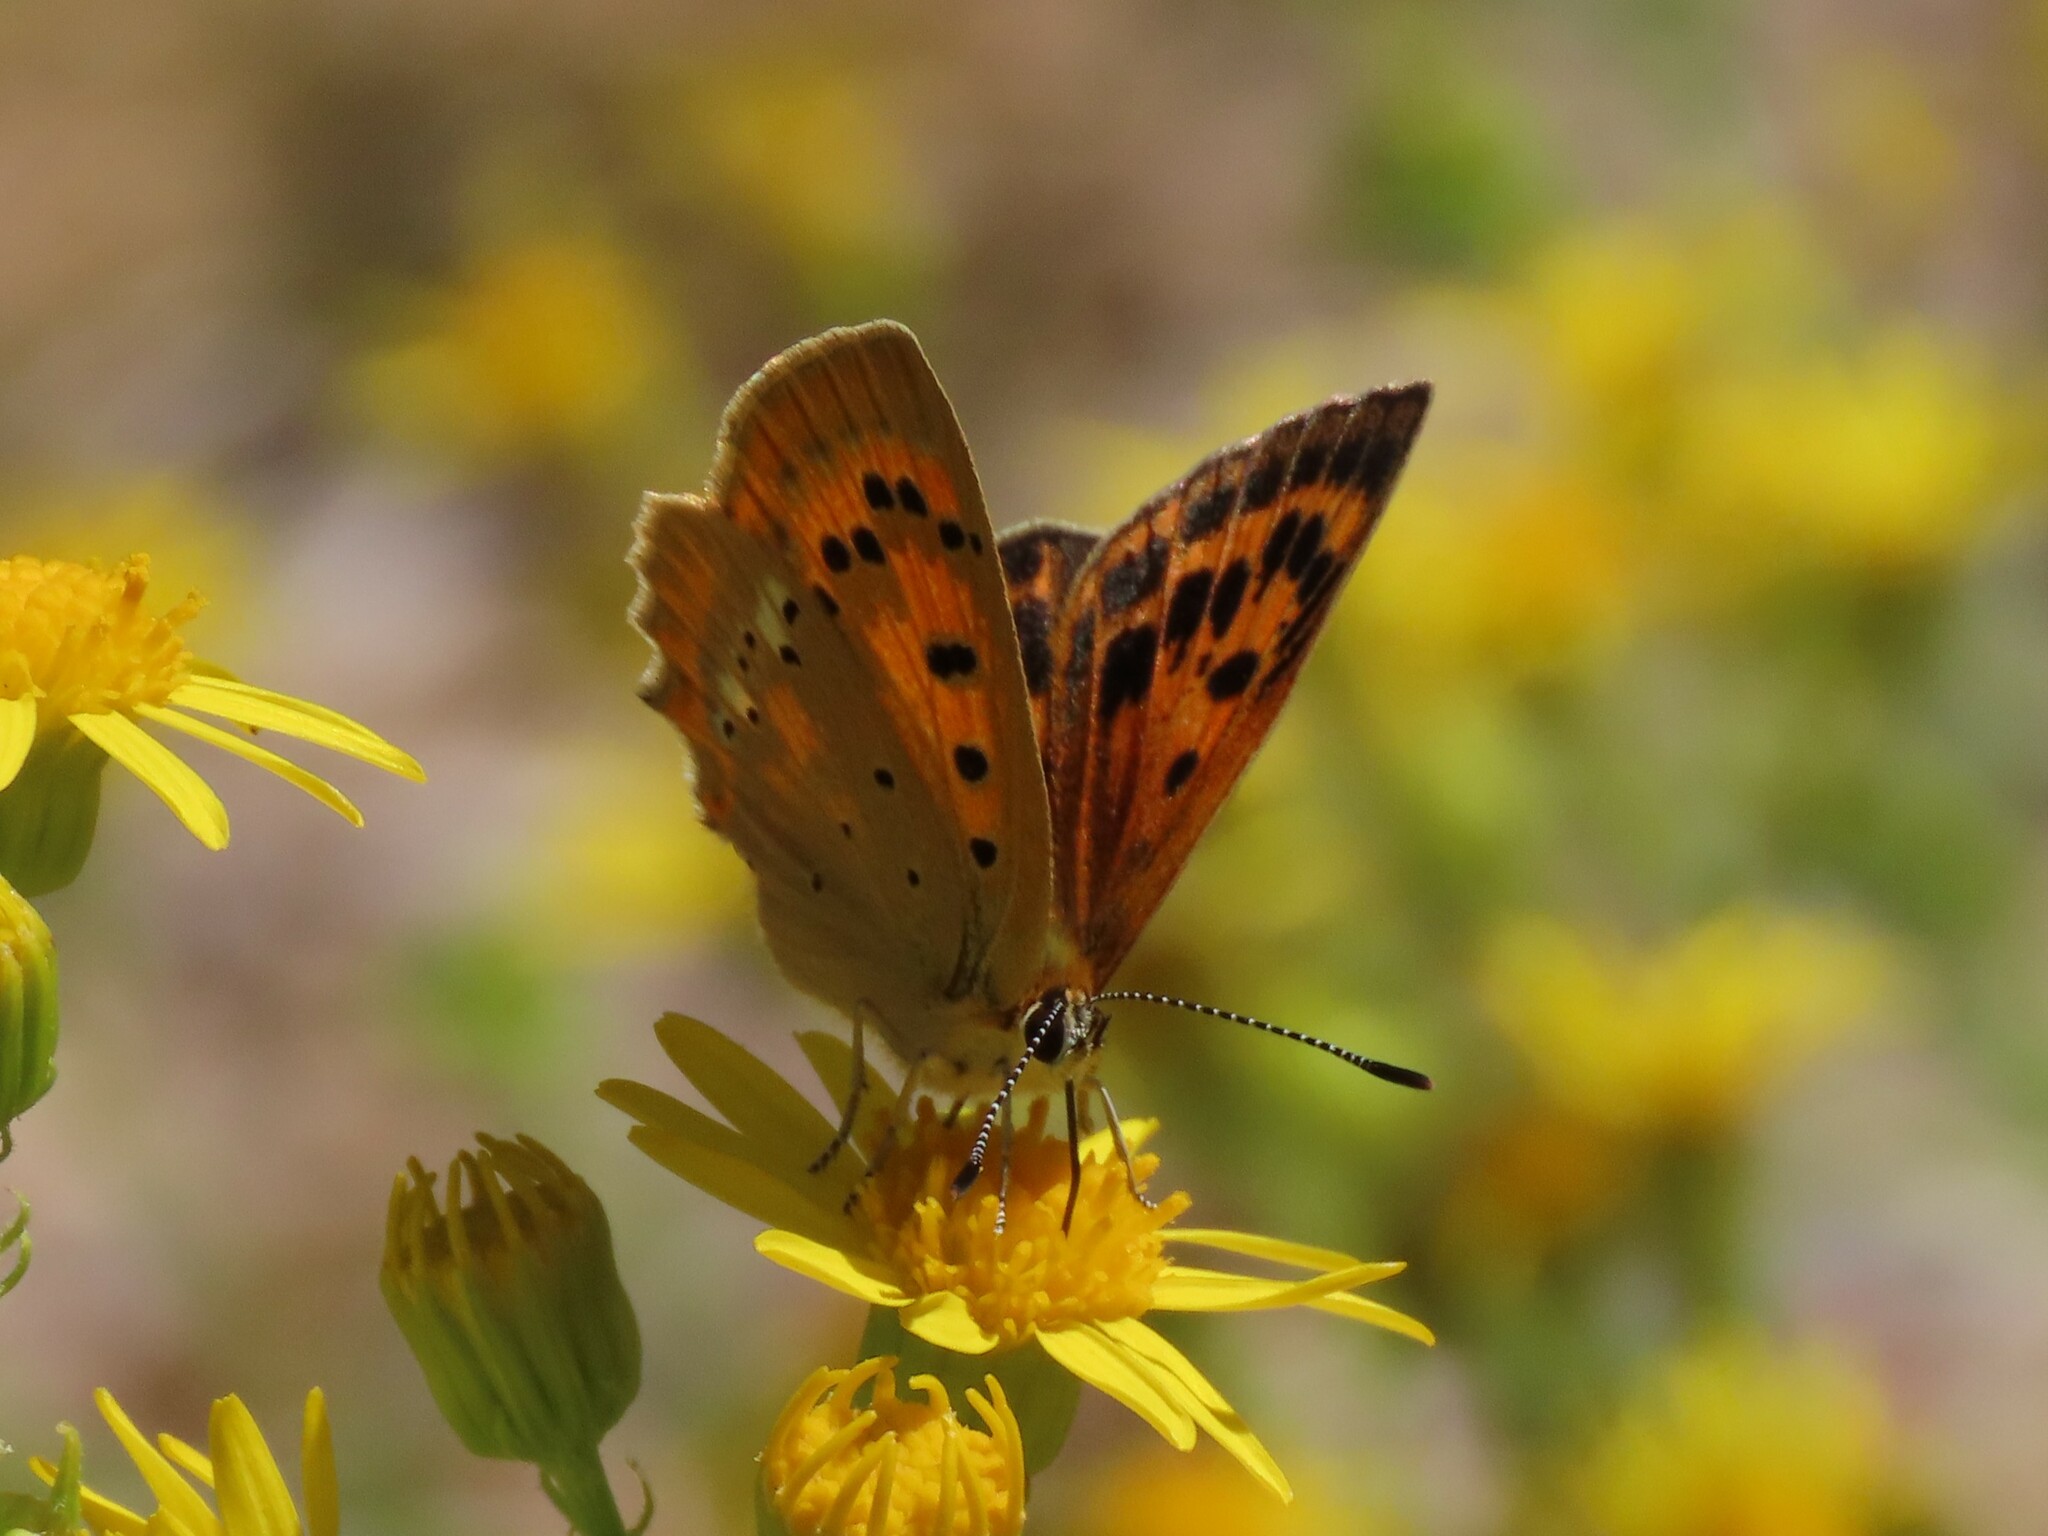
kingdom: Animalia
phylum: Arthropoda
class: Insecta
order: Lepidoptera
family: Lycaenidae
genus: Lycaena
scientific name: Lycaena virgaureae
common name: Scarce copper
